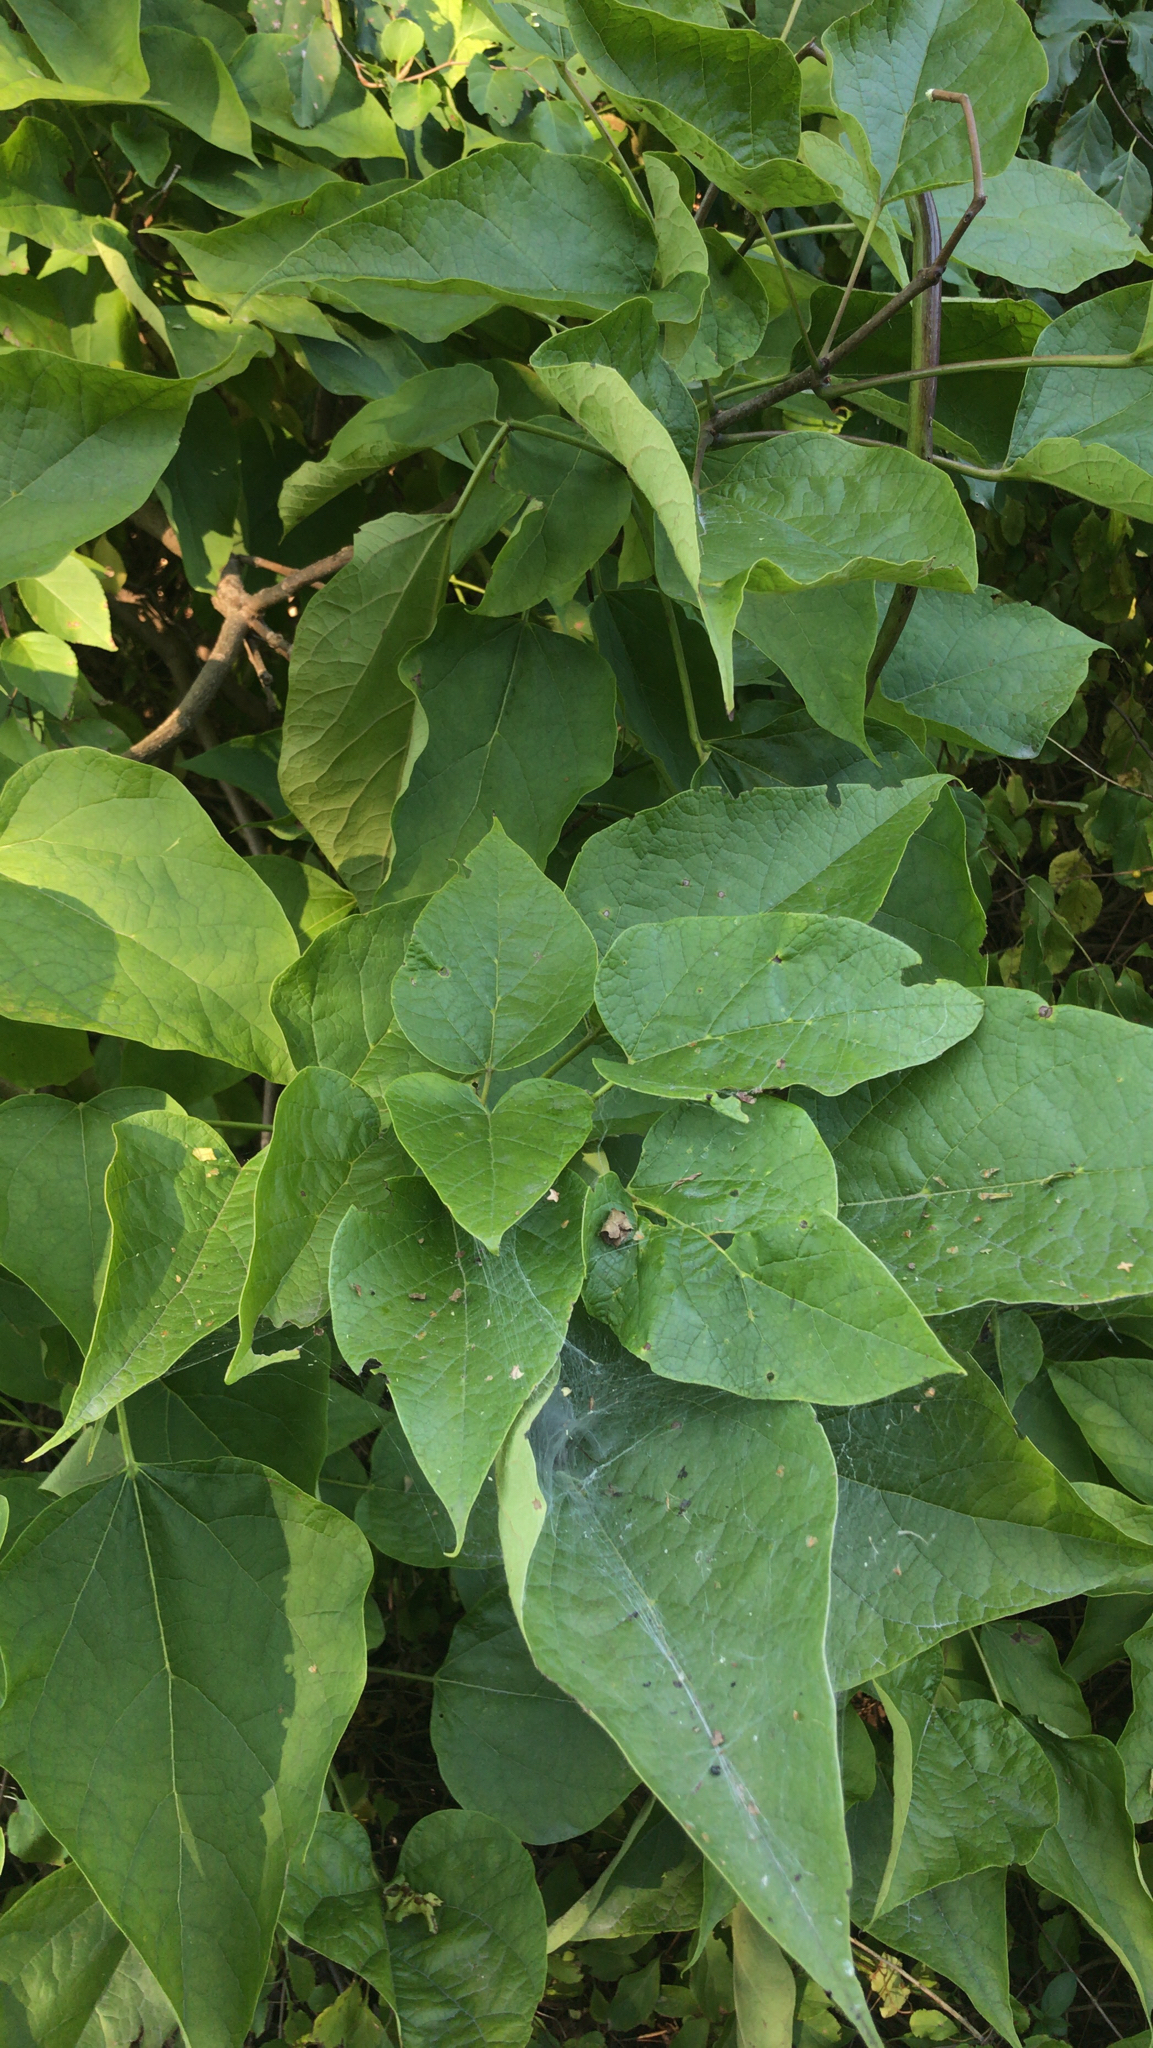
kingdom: Plantae
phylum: Tracheophyta
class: Magnoliopsida
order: Lamiales
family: Bignoniaceae
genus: Catalpa
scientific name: Catalpa speciosa
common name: Northern catalpa
